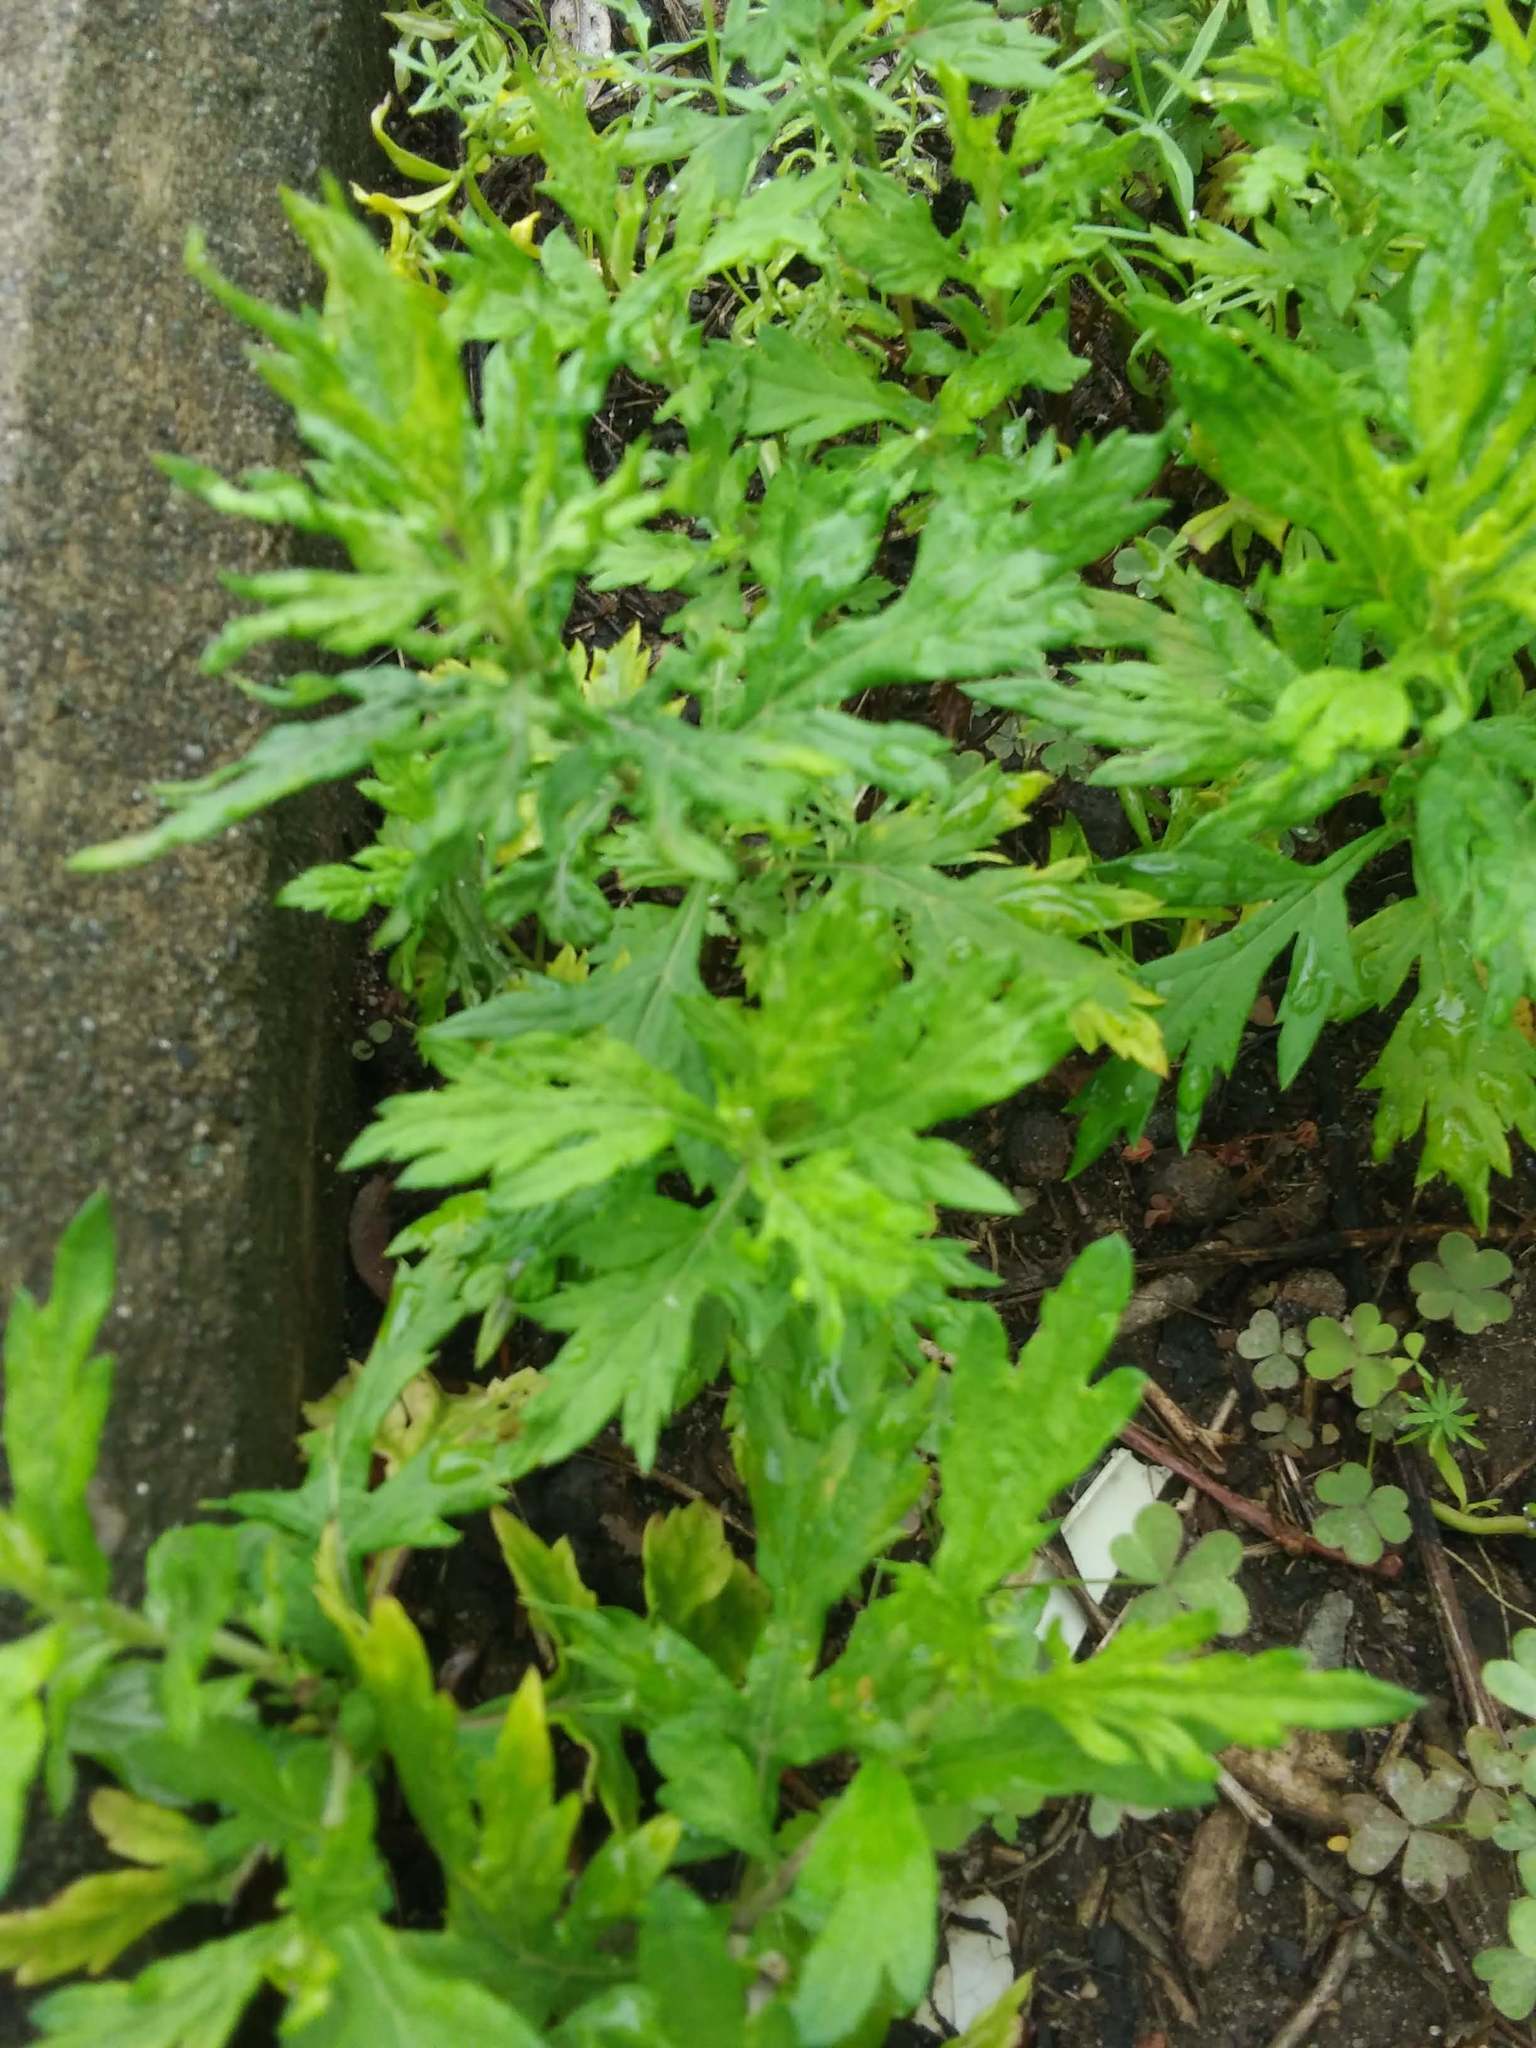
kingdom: Plantae
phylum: Tracheophyta
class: Magnoliopsida
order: Asterales
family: Asteraceae
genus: Artemisia
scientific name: Artemisia vulgaris
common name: Mugwort
